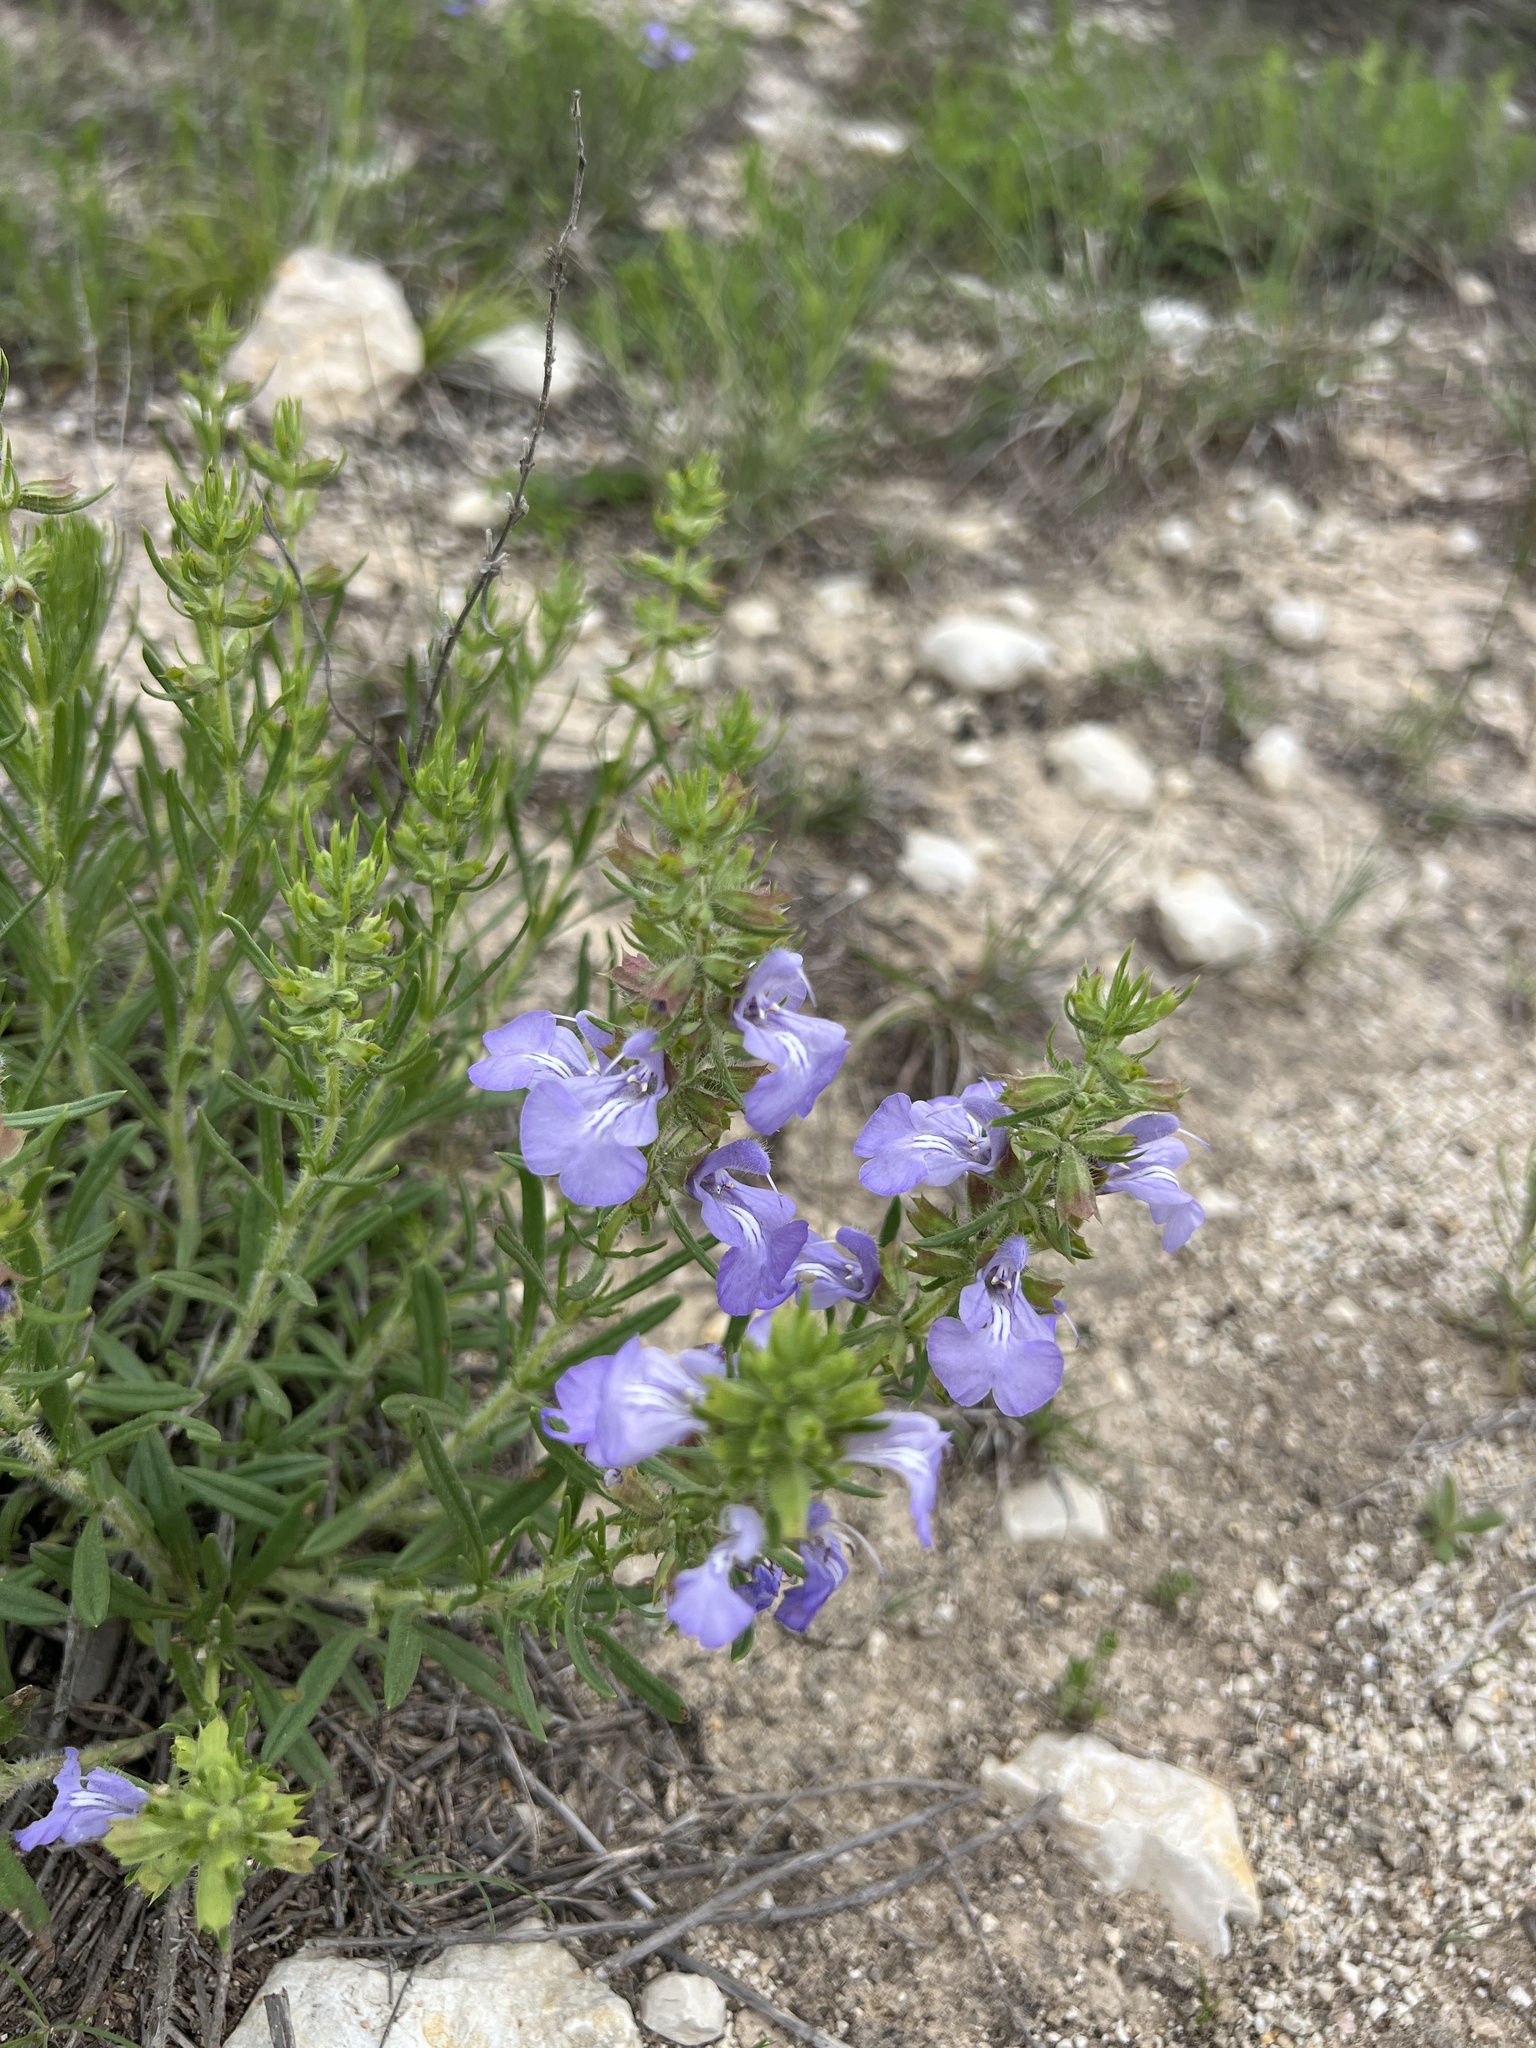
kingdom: Plantae
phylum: Tracheophyta
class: Magnoliopsida
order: Lamiales
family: Lamiaceae
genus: Salvia
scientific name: Salvia texana
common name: Texas sage
